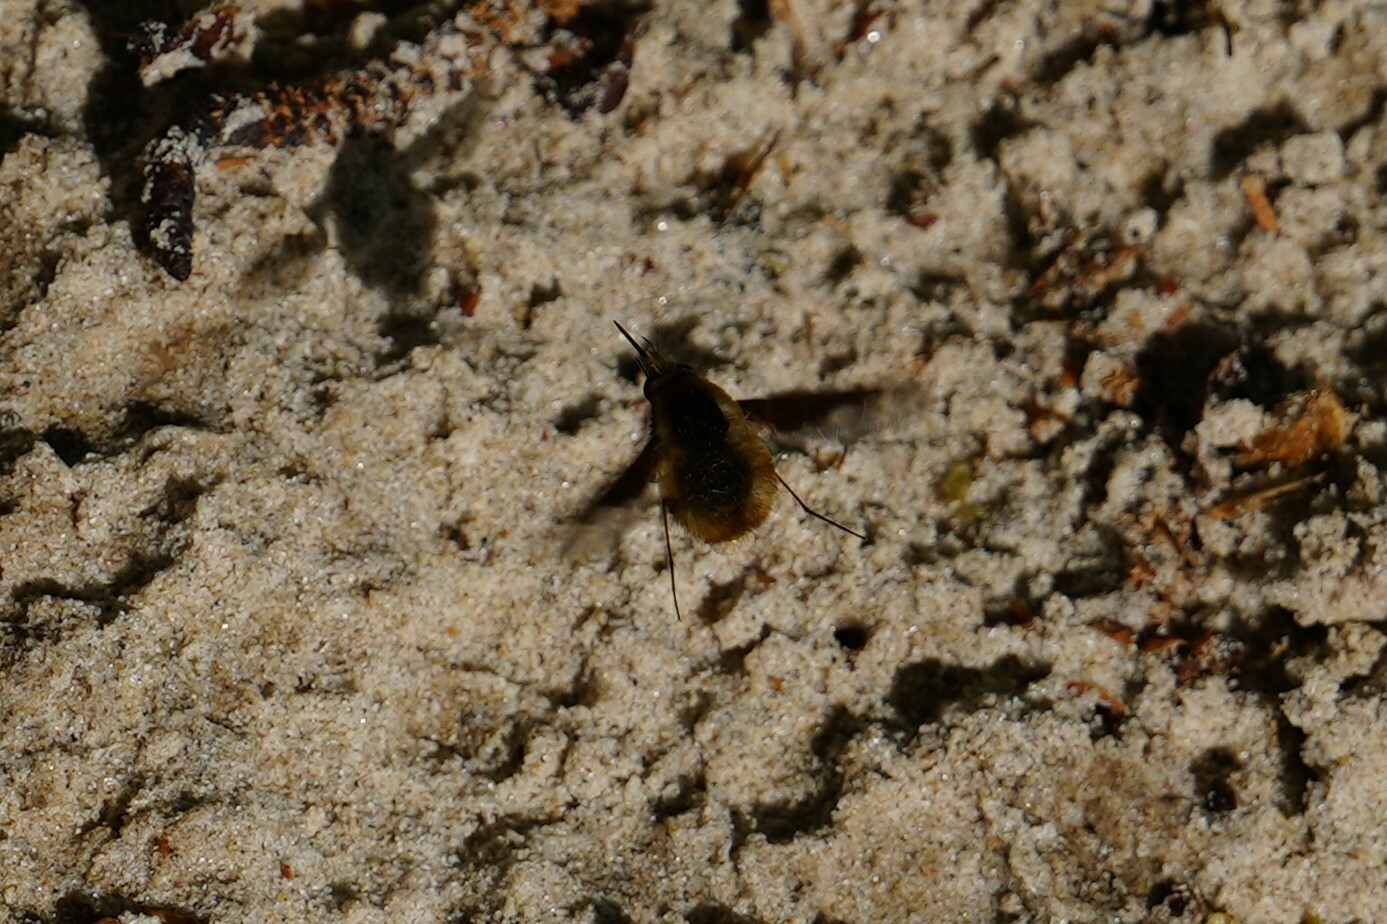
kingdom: Animalia
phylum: Arthropoda
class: Insecta
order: Diptera
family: Bombyliidae
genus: Bombylius
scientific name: Bombylius major
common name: Bee fly
